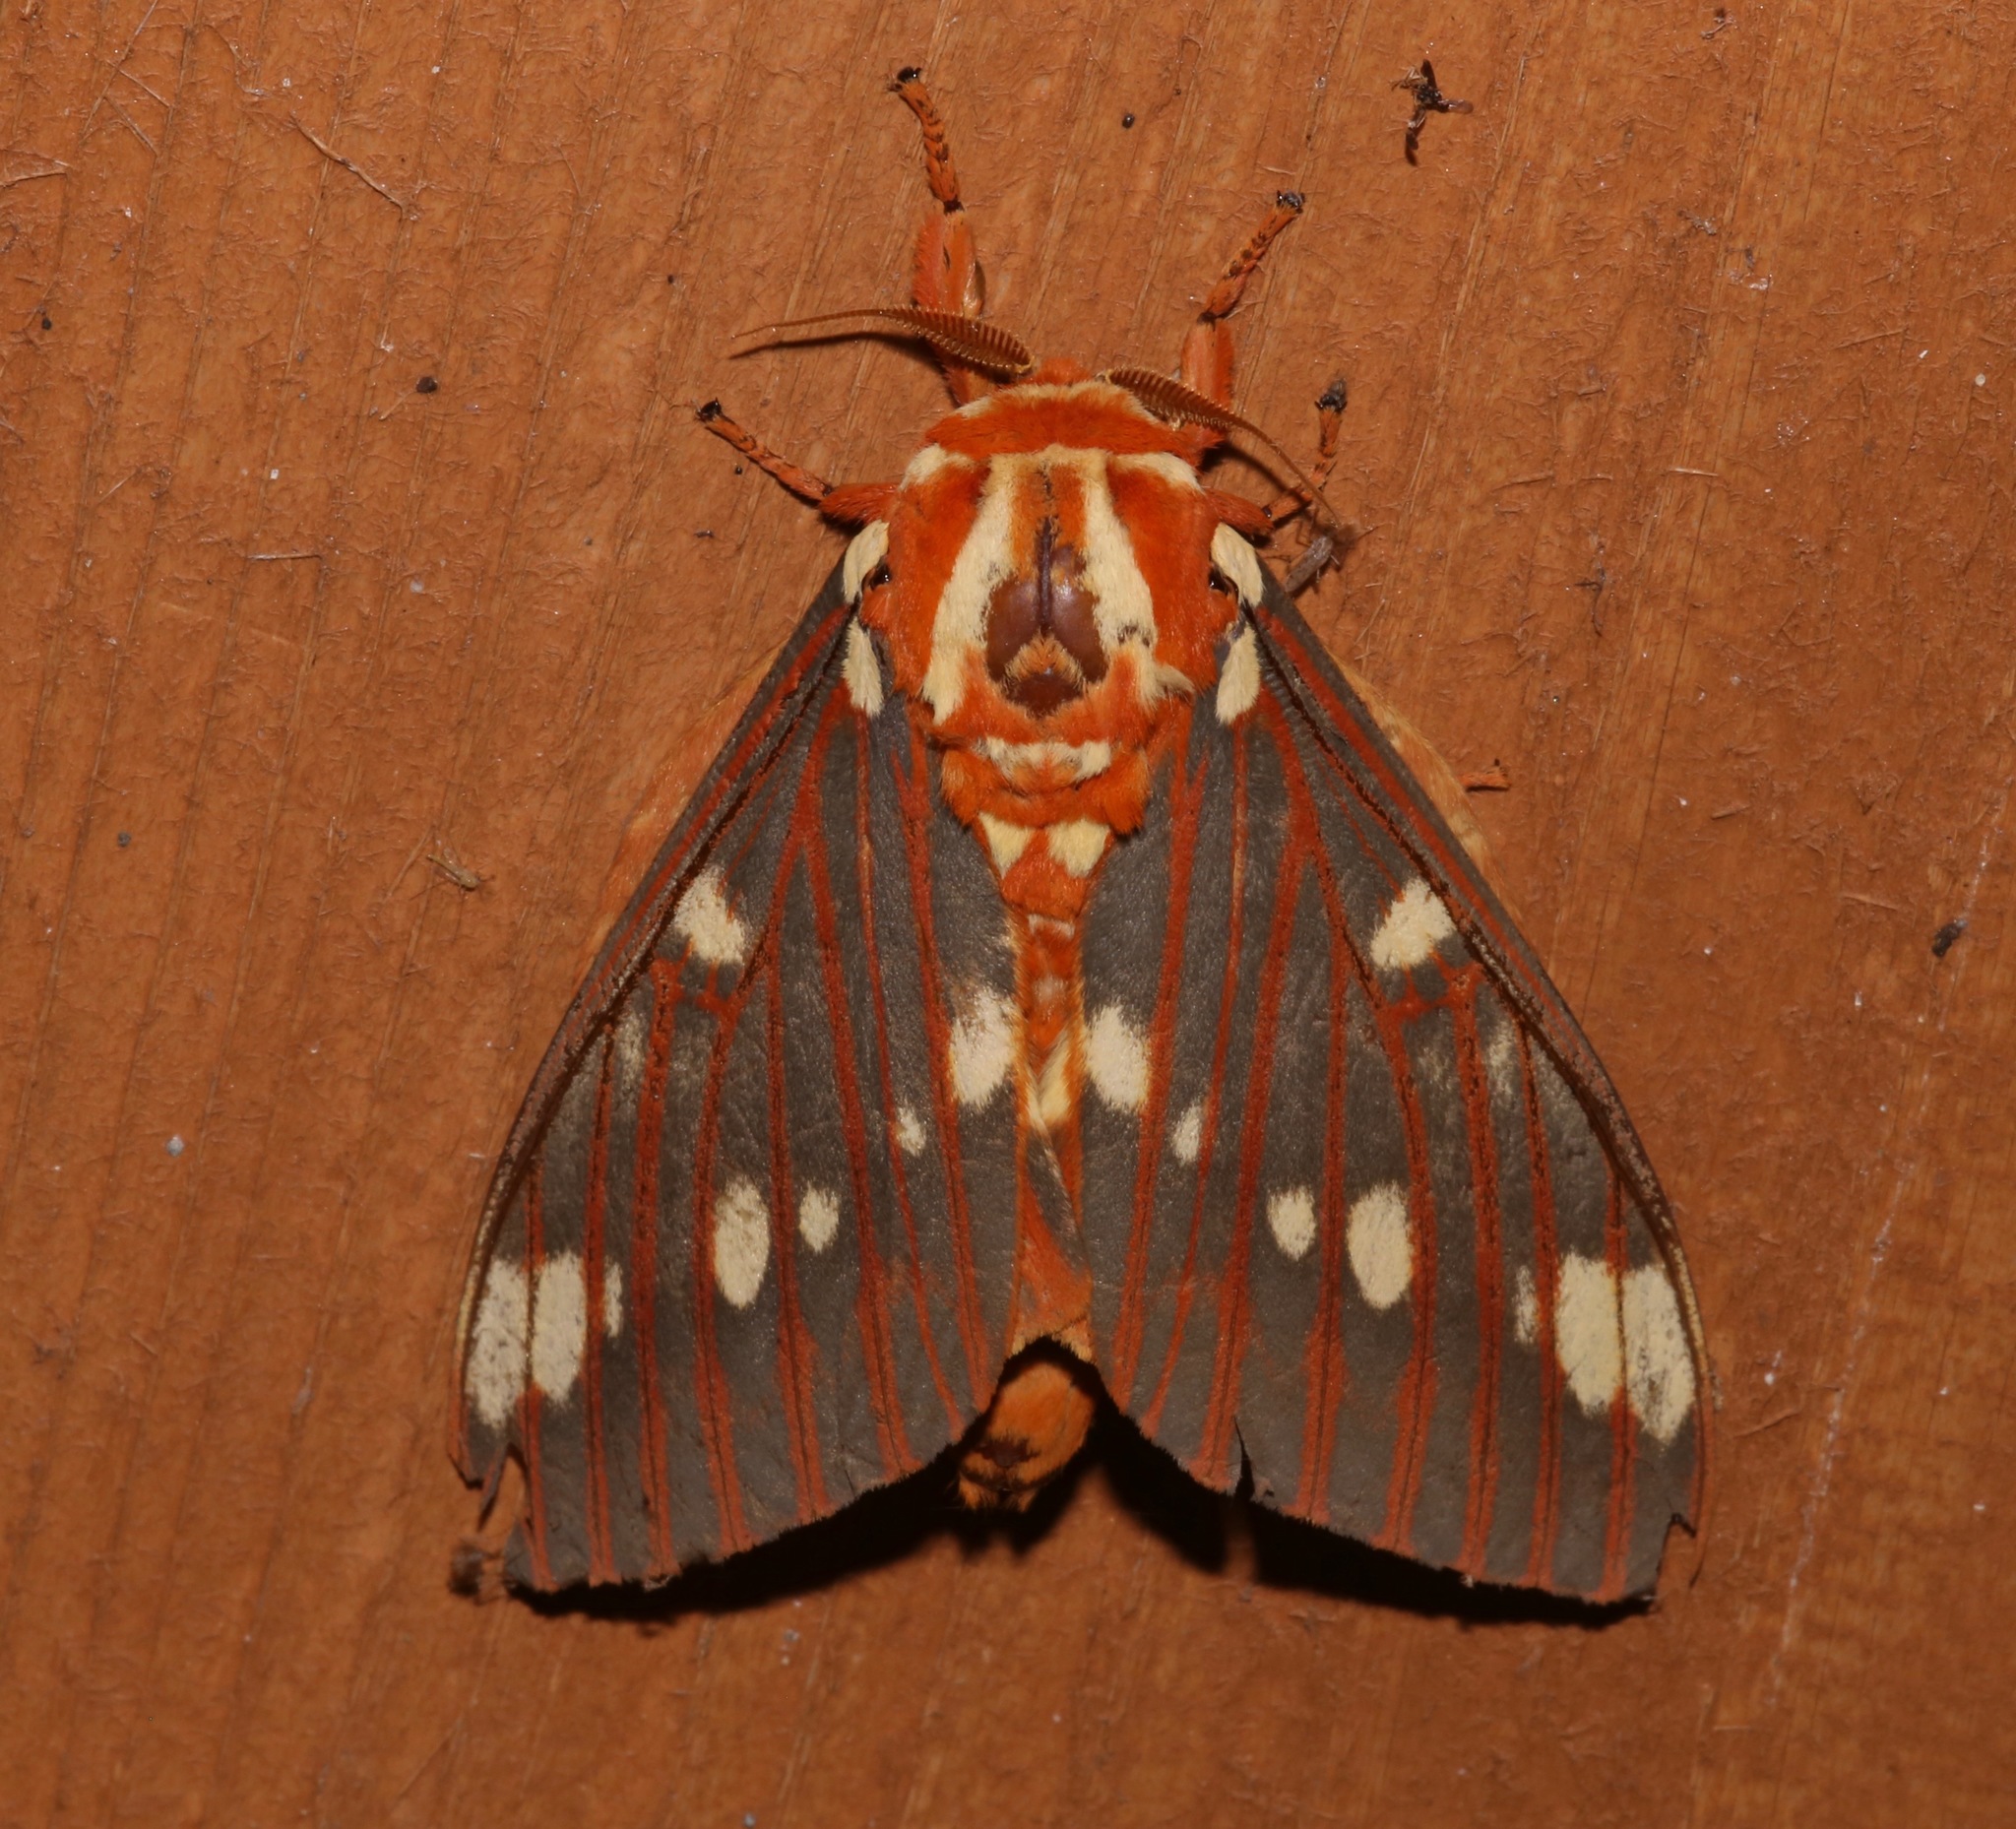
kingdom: Animalia
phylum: Arthropoda
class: Insecta
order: Lepidoptera
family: Saturniidae
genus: Citheronia
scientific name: Citheronia regalis
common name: Hickory horned devil
